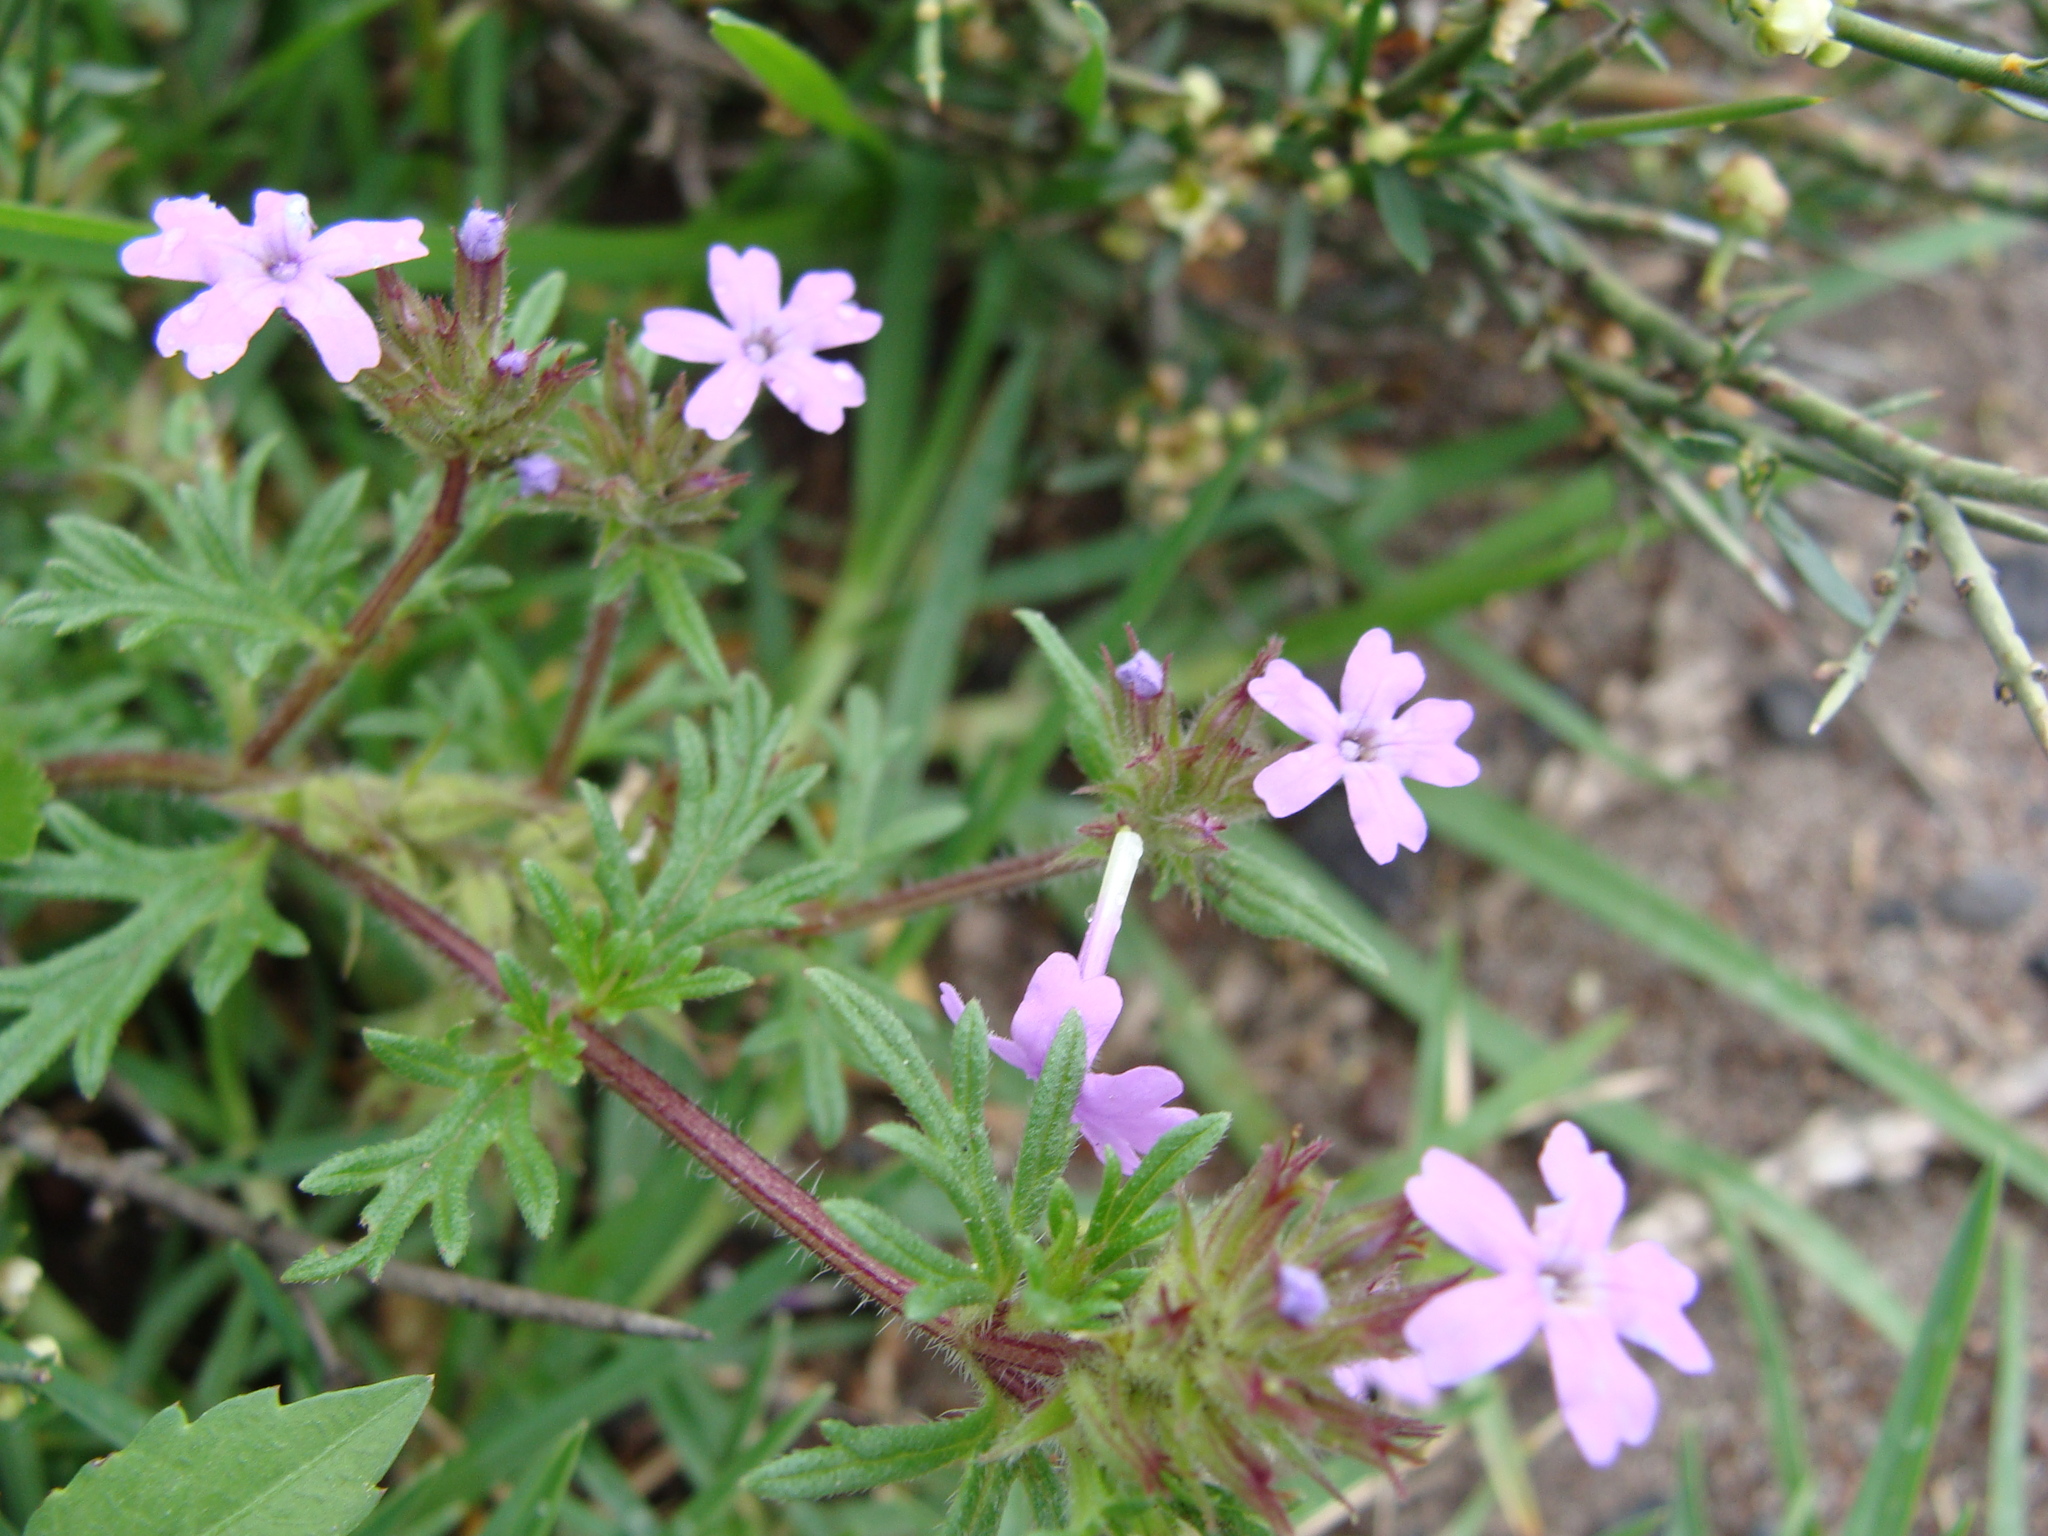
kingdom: Plantae
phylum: Tracheophyta
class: Magnoliopsida
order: Lamiales
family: Verbenaceae
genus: Verbena
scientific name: Verbena bipinnatifida
